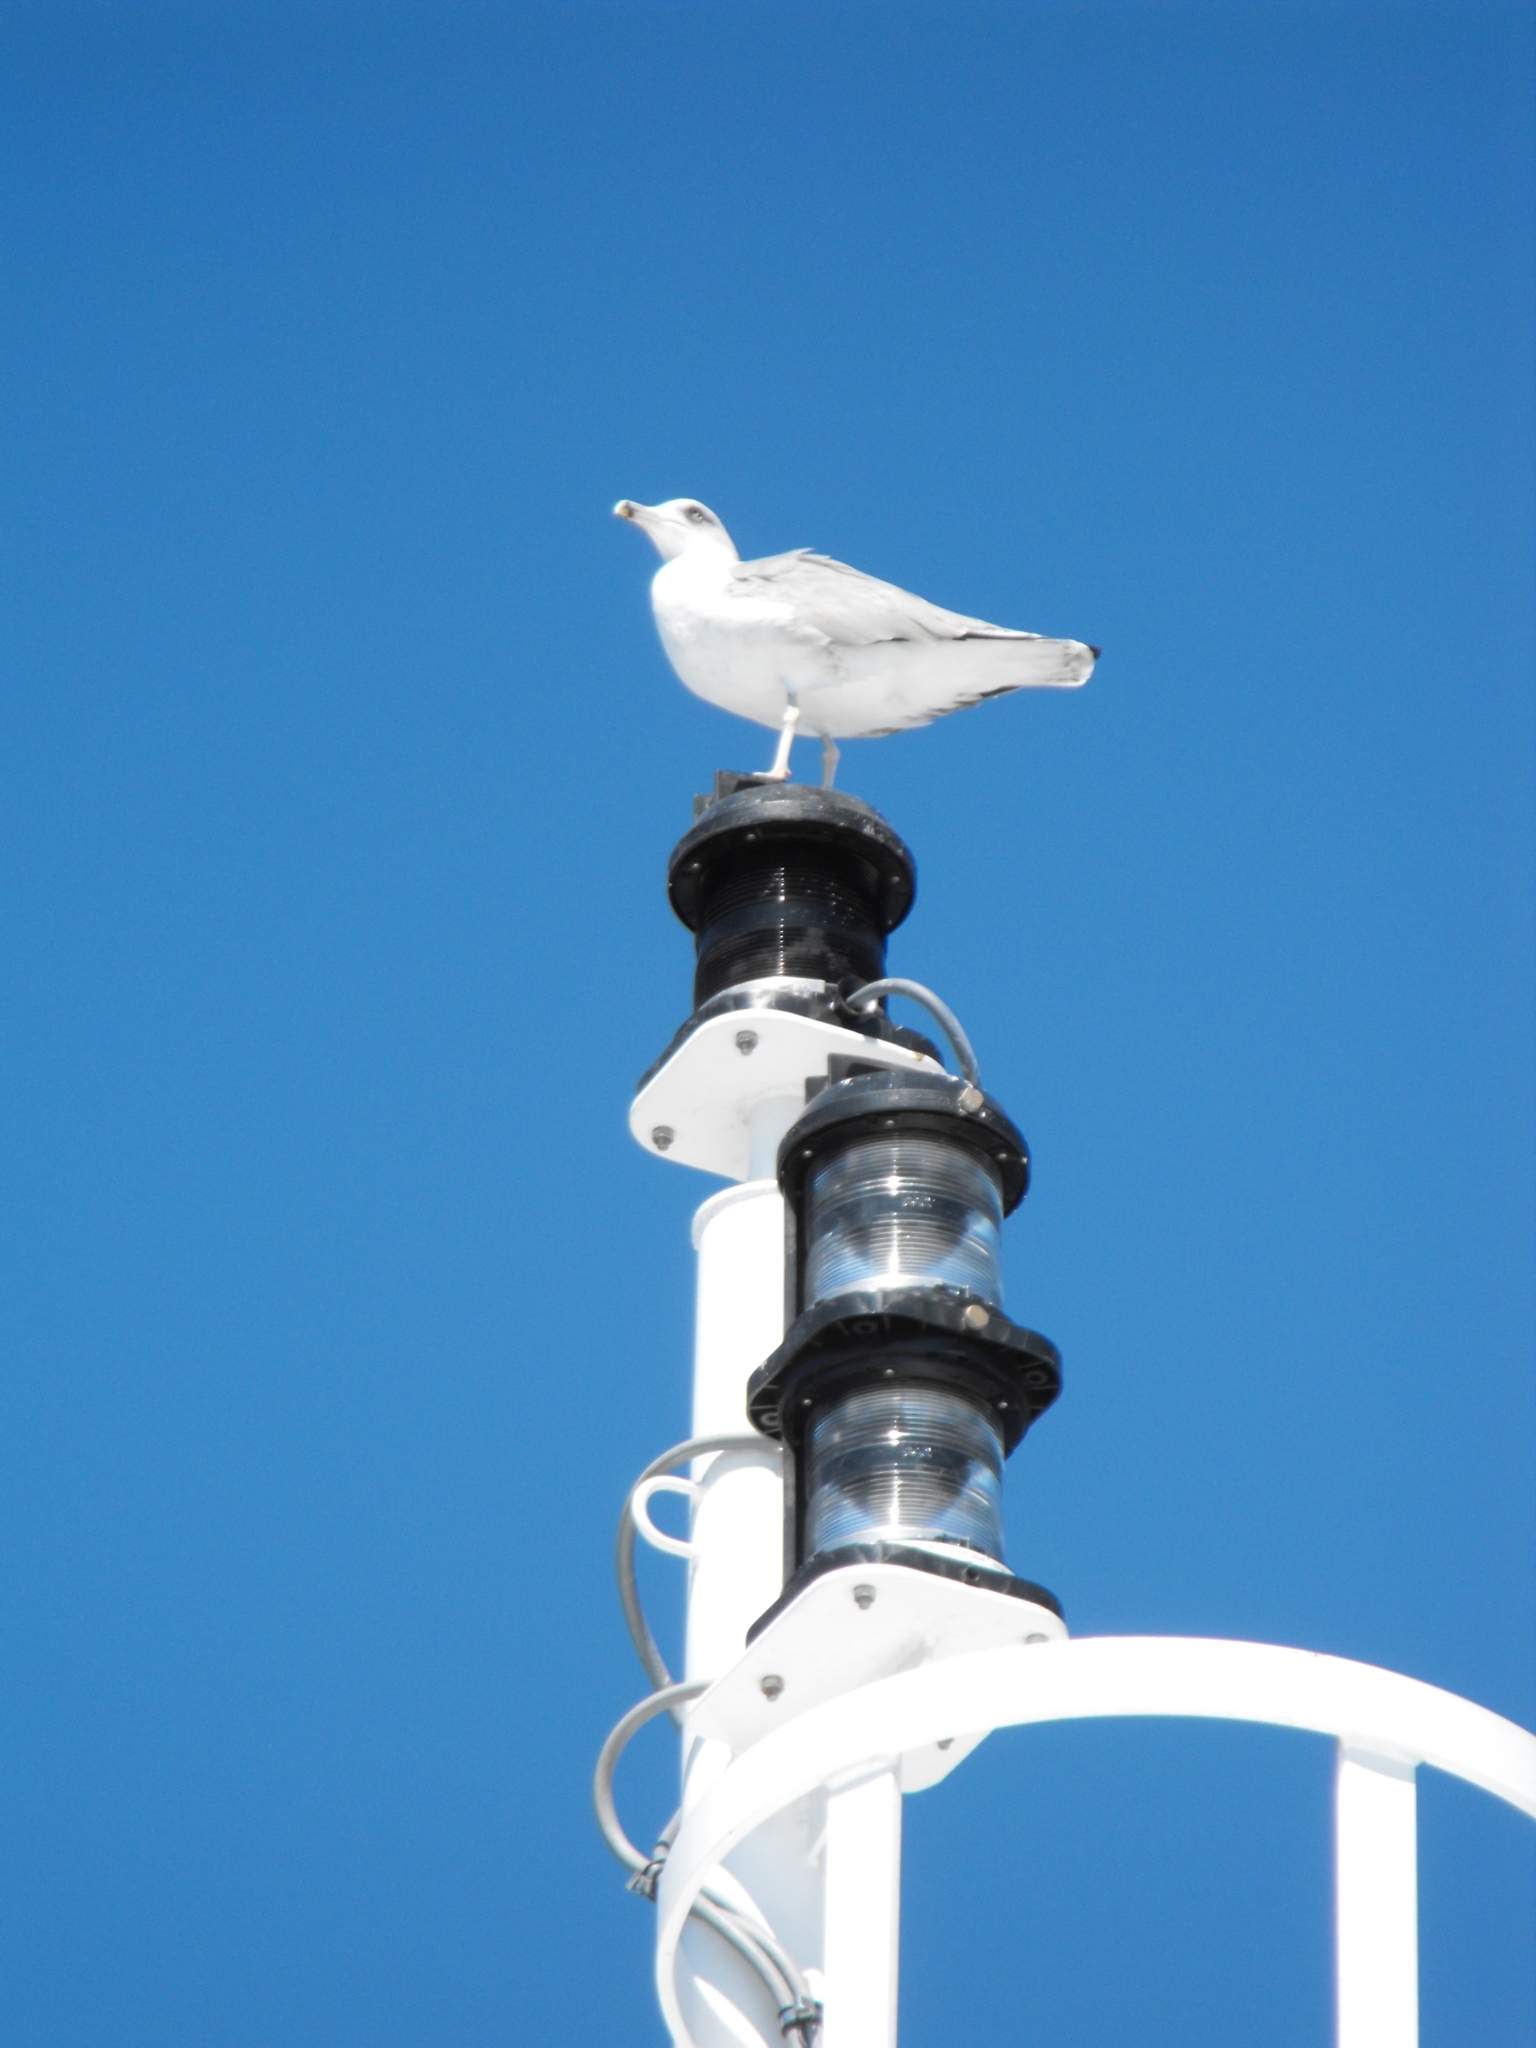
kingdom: Animalia
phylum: Chordata
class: Aves
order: Charadriiformes
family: Laridae
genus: Larus
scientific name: Larus michahellis
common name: Yellow-legged gull
